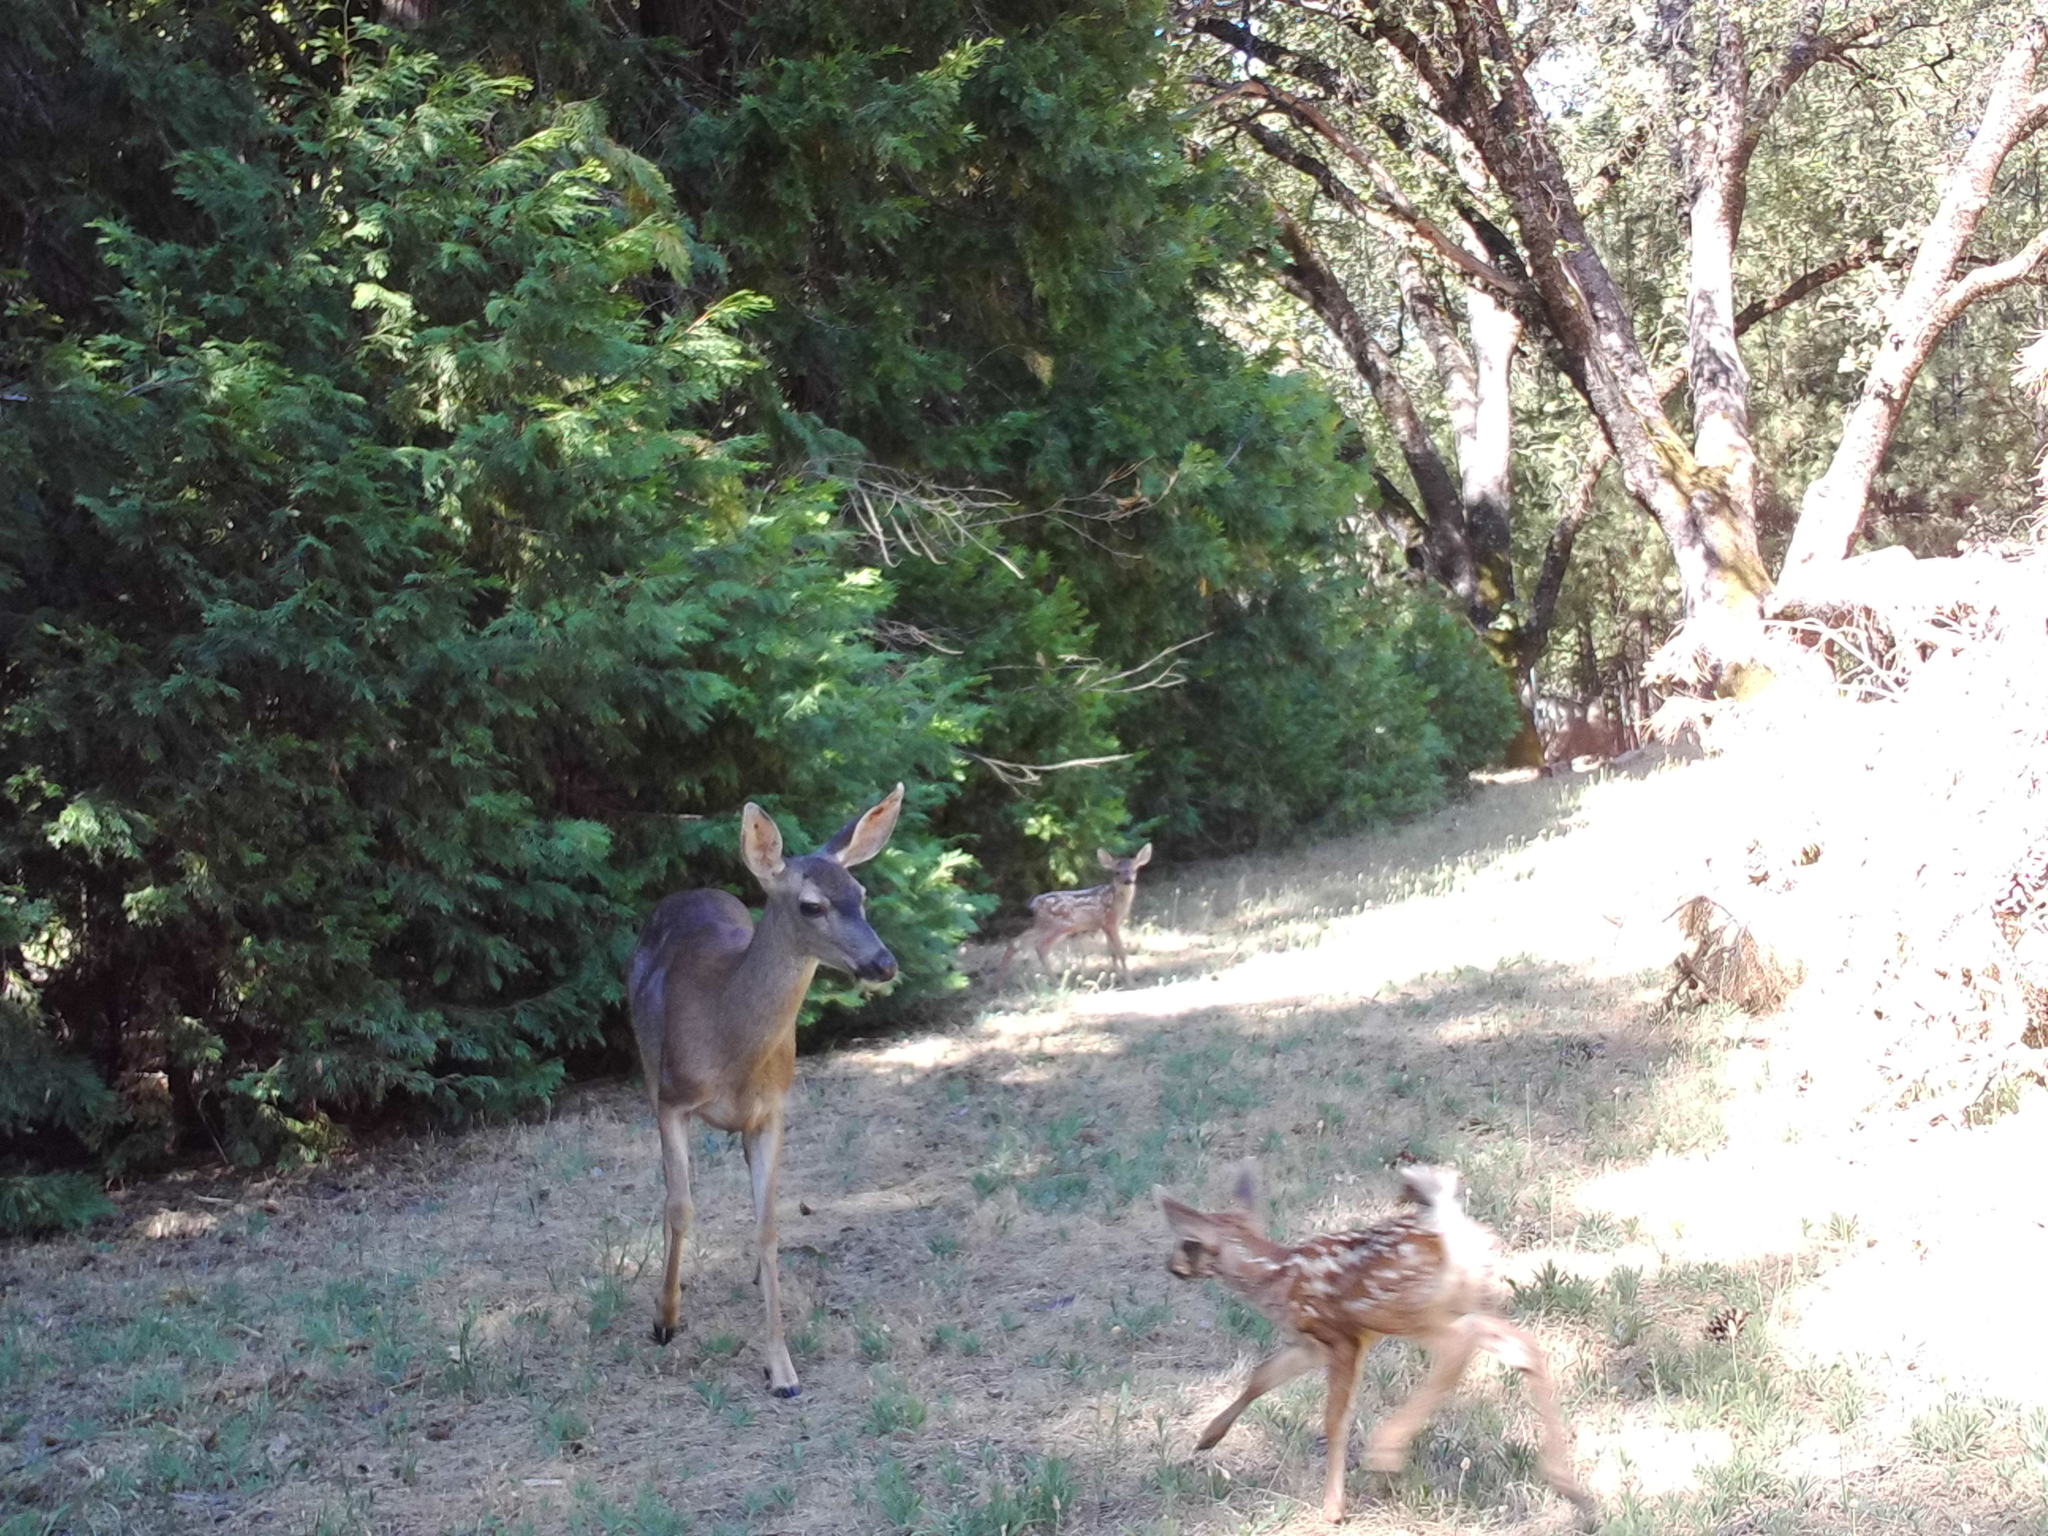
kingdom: Animalia
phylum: Chordata
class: Mammalia
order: Artiodactyla
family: Cervidae
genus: Odocoileus
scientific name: Odocoileus hemionus
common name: Mule deer
